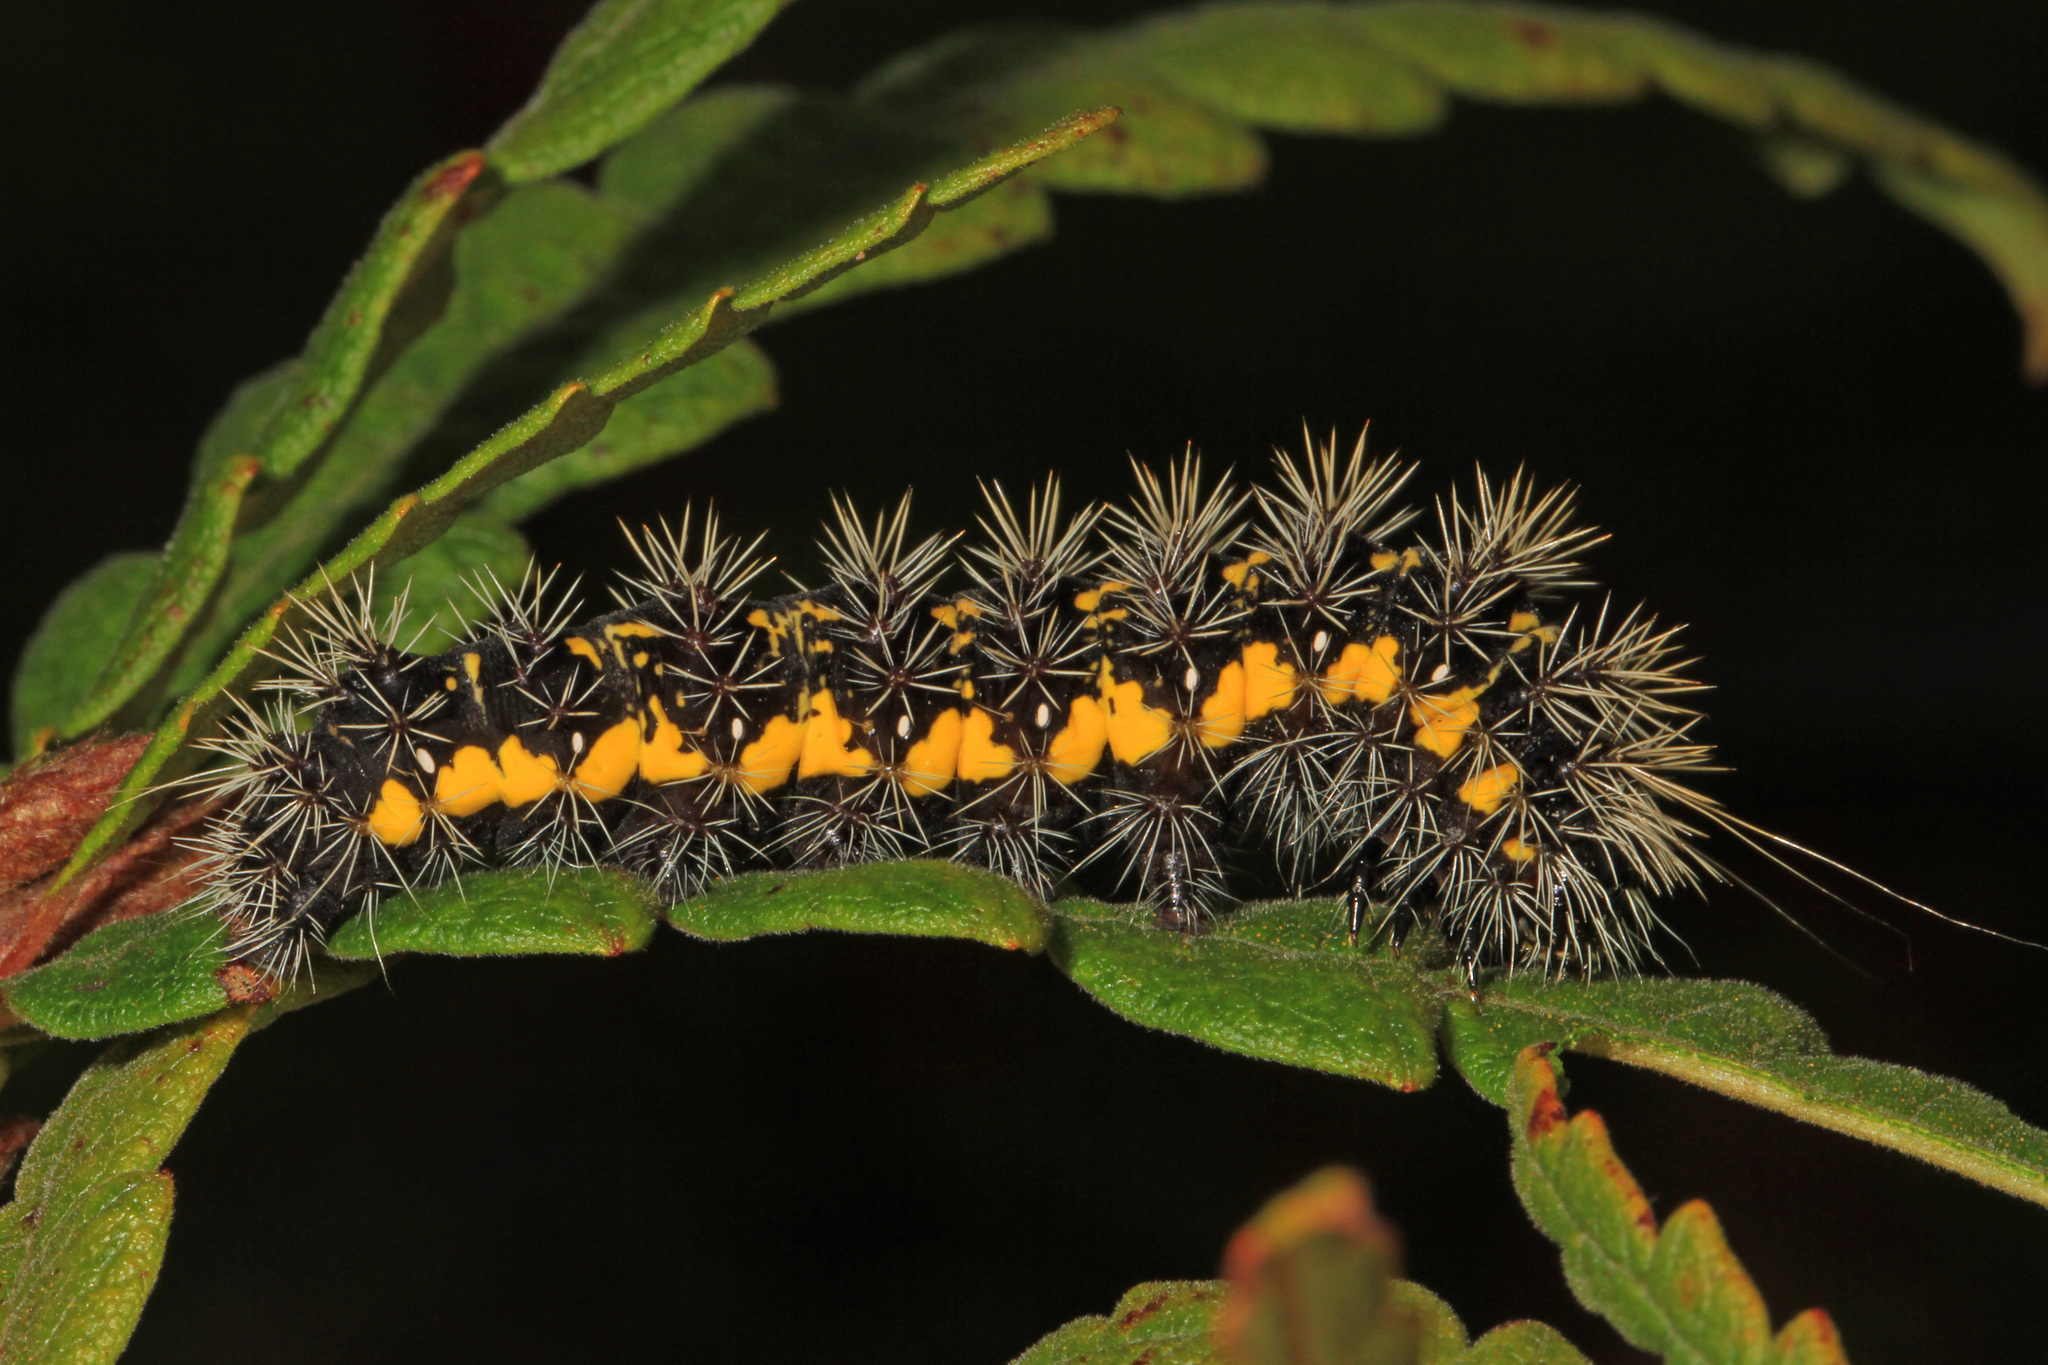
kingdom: Animalia
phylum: Arthropoda
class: Insecta
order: Lepidoptera
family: Noctuidae
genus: Acronicta
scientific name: Acronicta oblinita
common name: Smeared dagger
